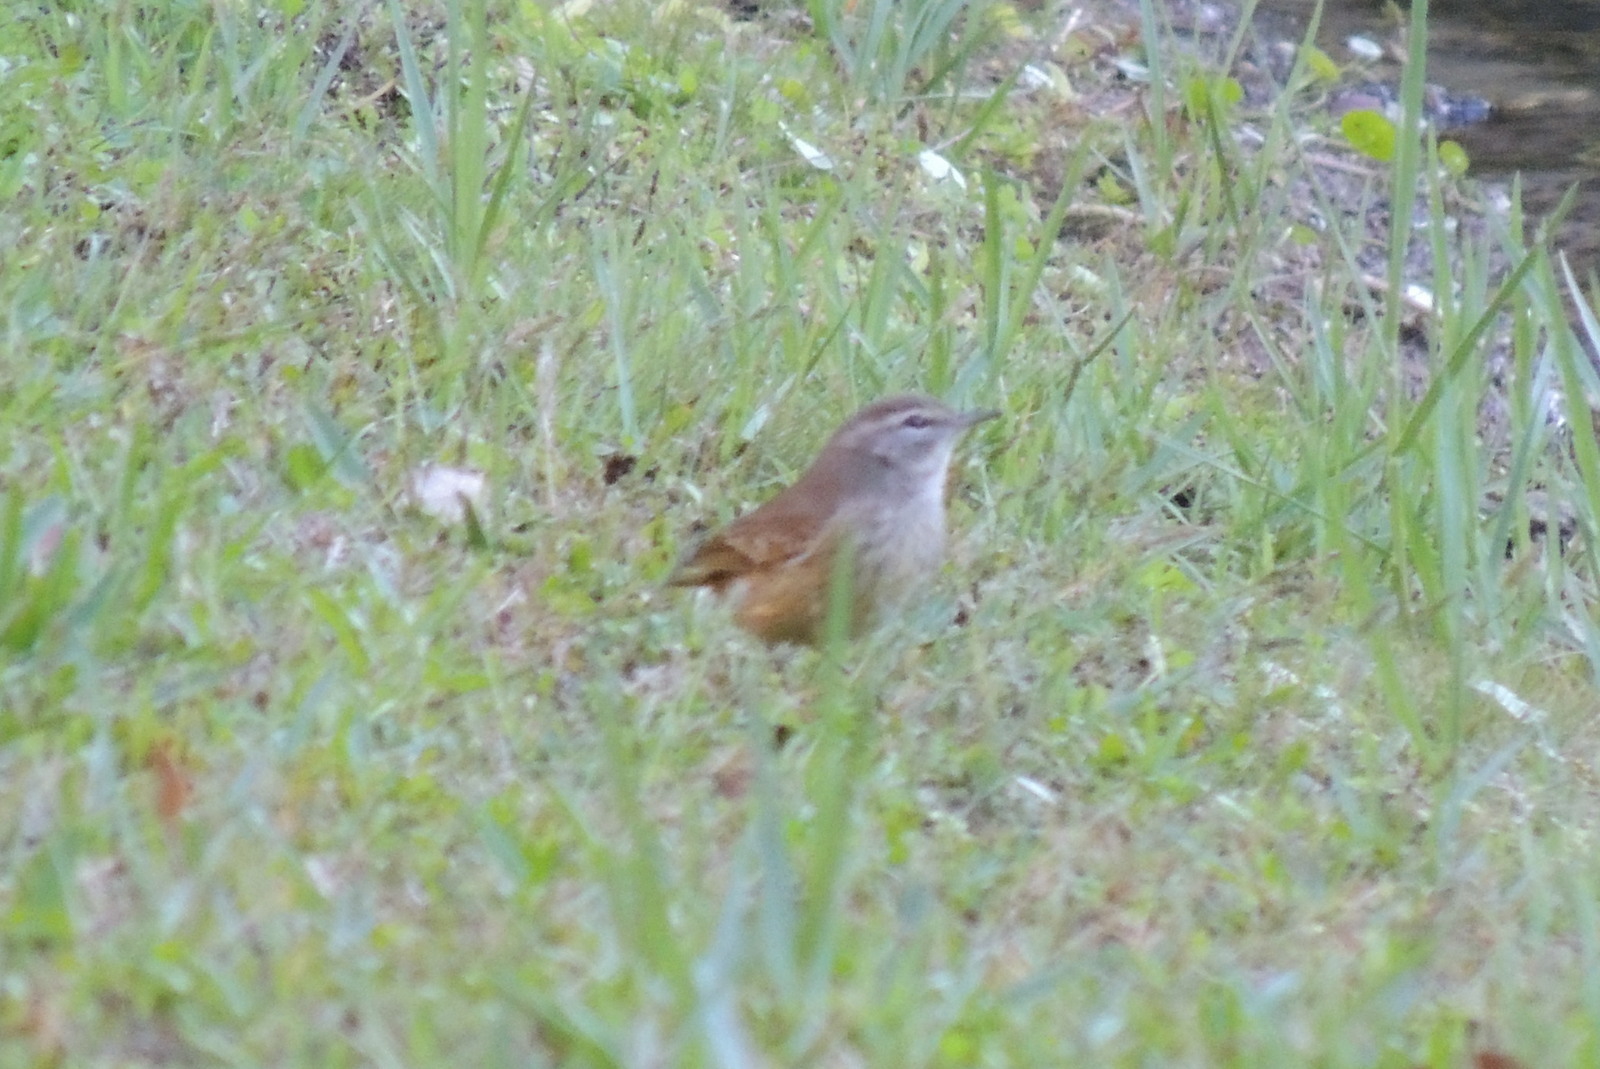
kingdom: Animalia
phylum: Chordata
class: Aves
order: Passeriformes
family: Parulidae
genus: Setophaga
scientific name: Setophaga palmarum
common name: Palm warbler
